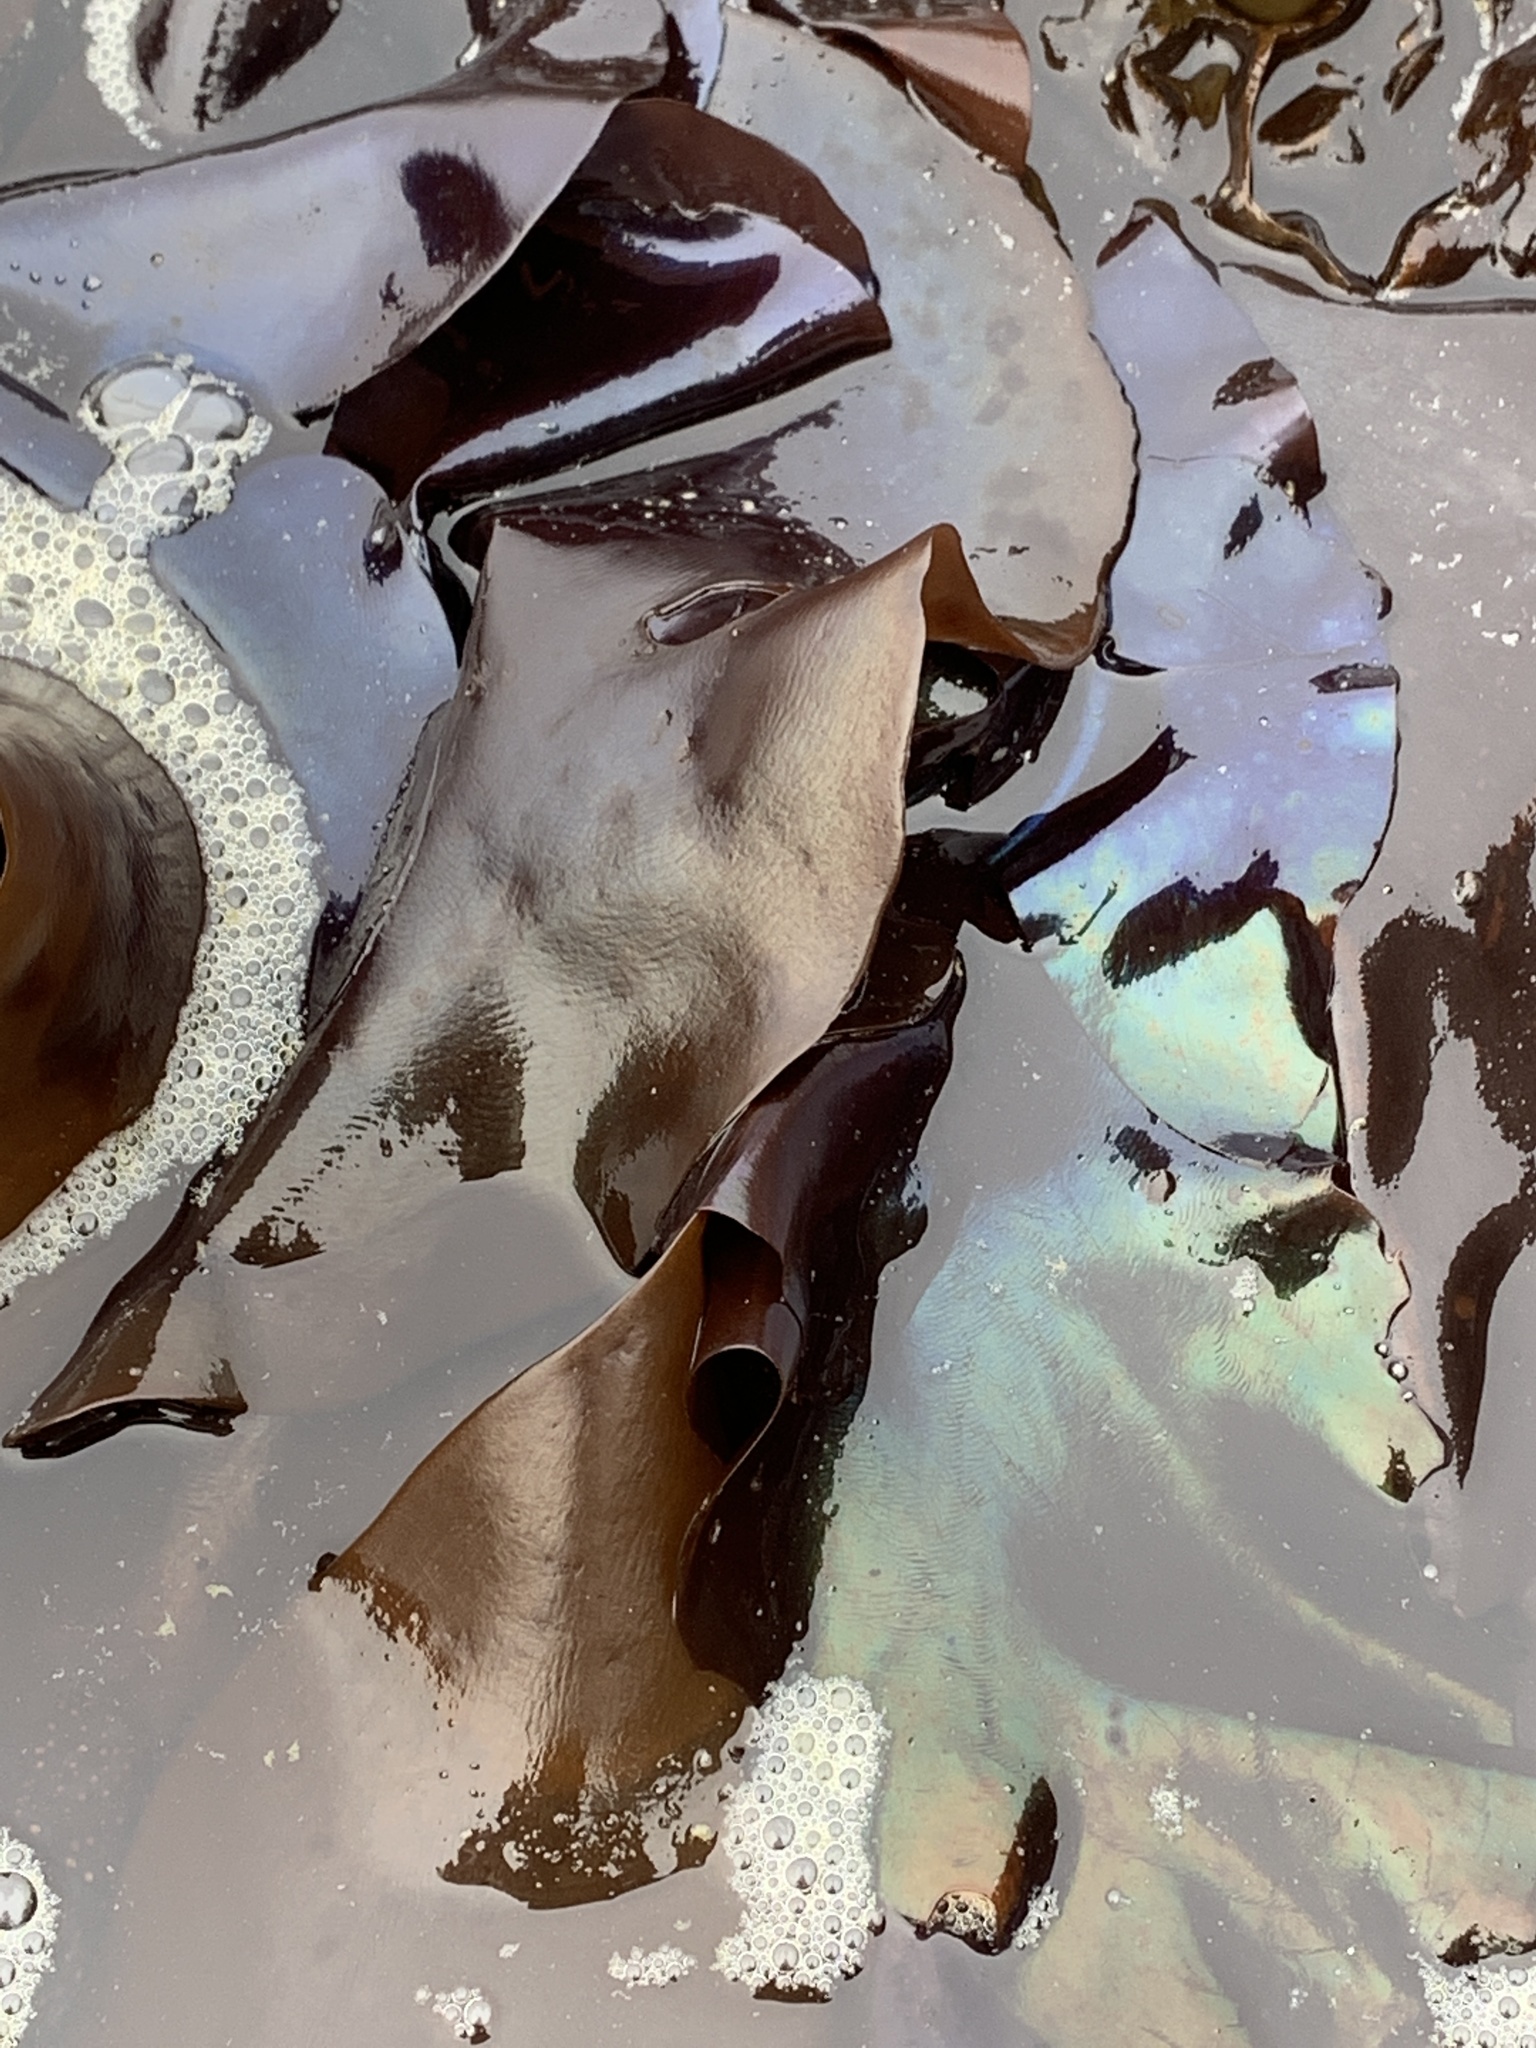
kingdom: Plantae
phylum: Rhodophyta
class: Florideophyceae
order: Gigartinales
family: Gigartinaceae
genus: Mazzaella
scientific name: Mazzaella splendens
